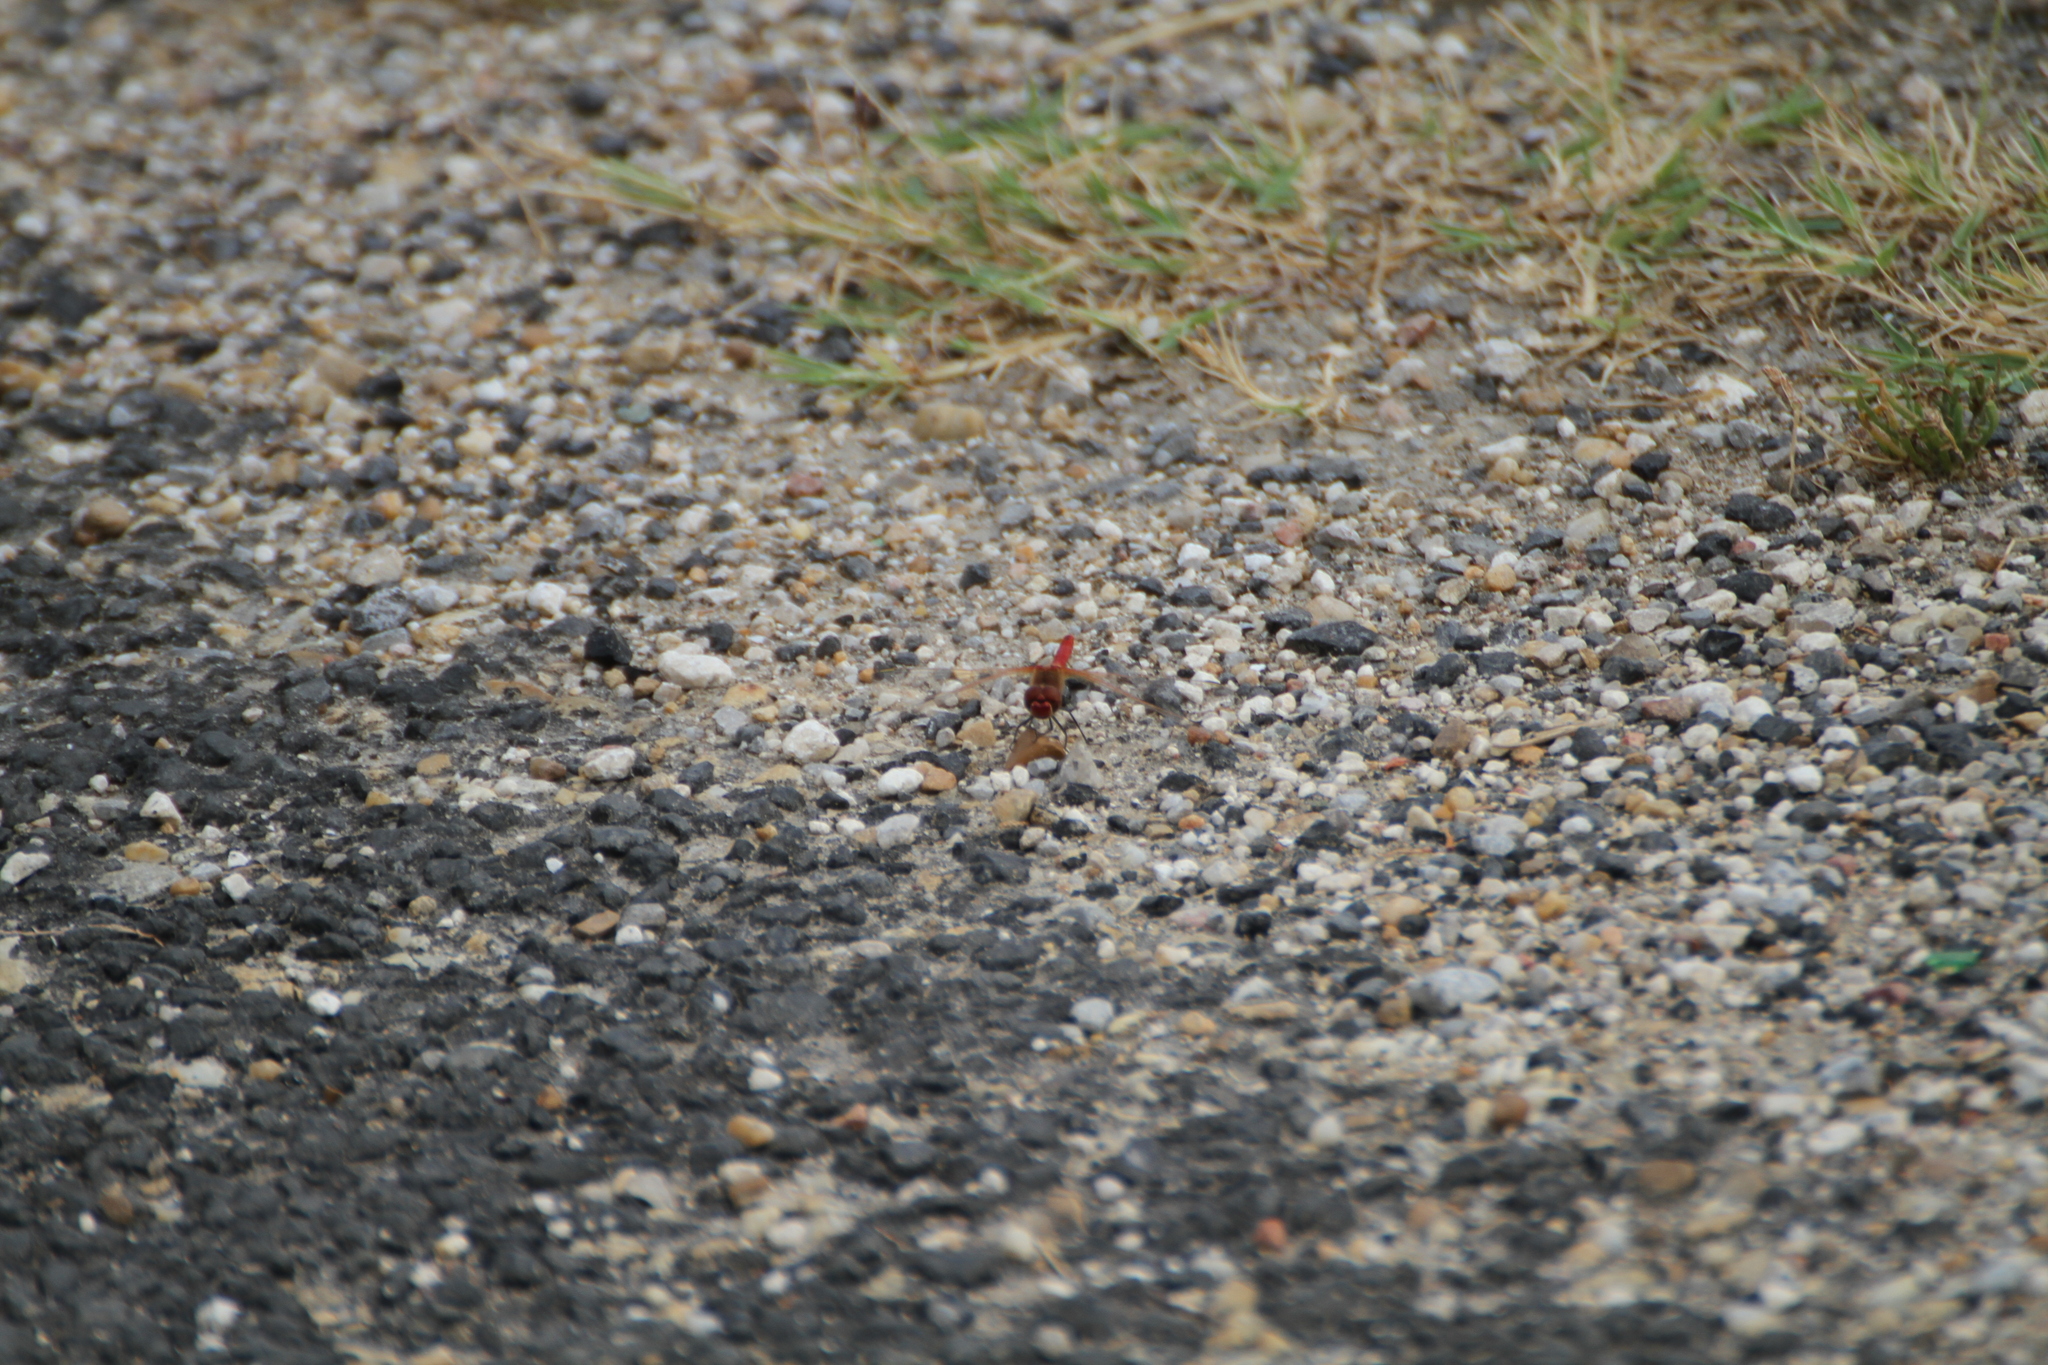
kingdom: Animalia
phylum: Arthropoda
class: Insecta
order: Odonata
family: Libellulidae
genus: Sympetrum
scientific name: Sympetrum fonscolombii
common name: Red-veined darter
